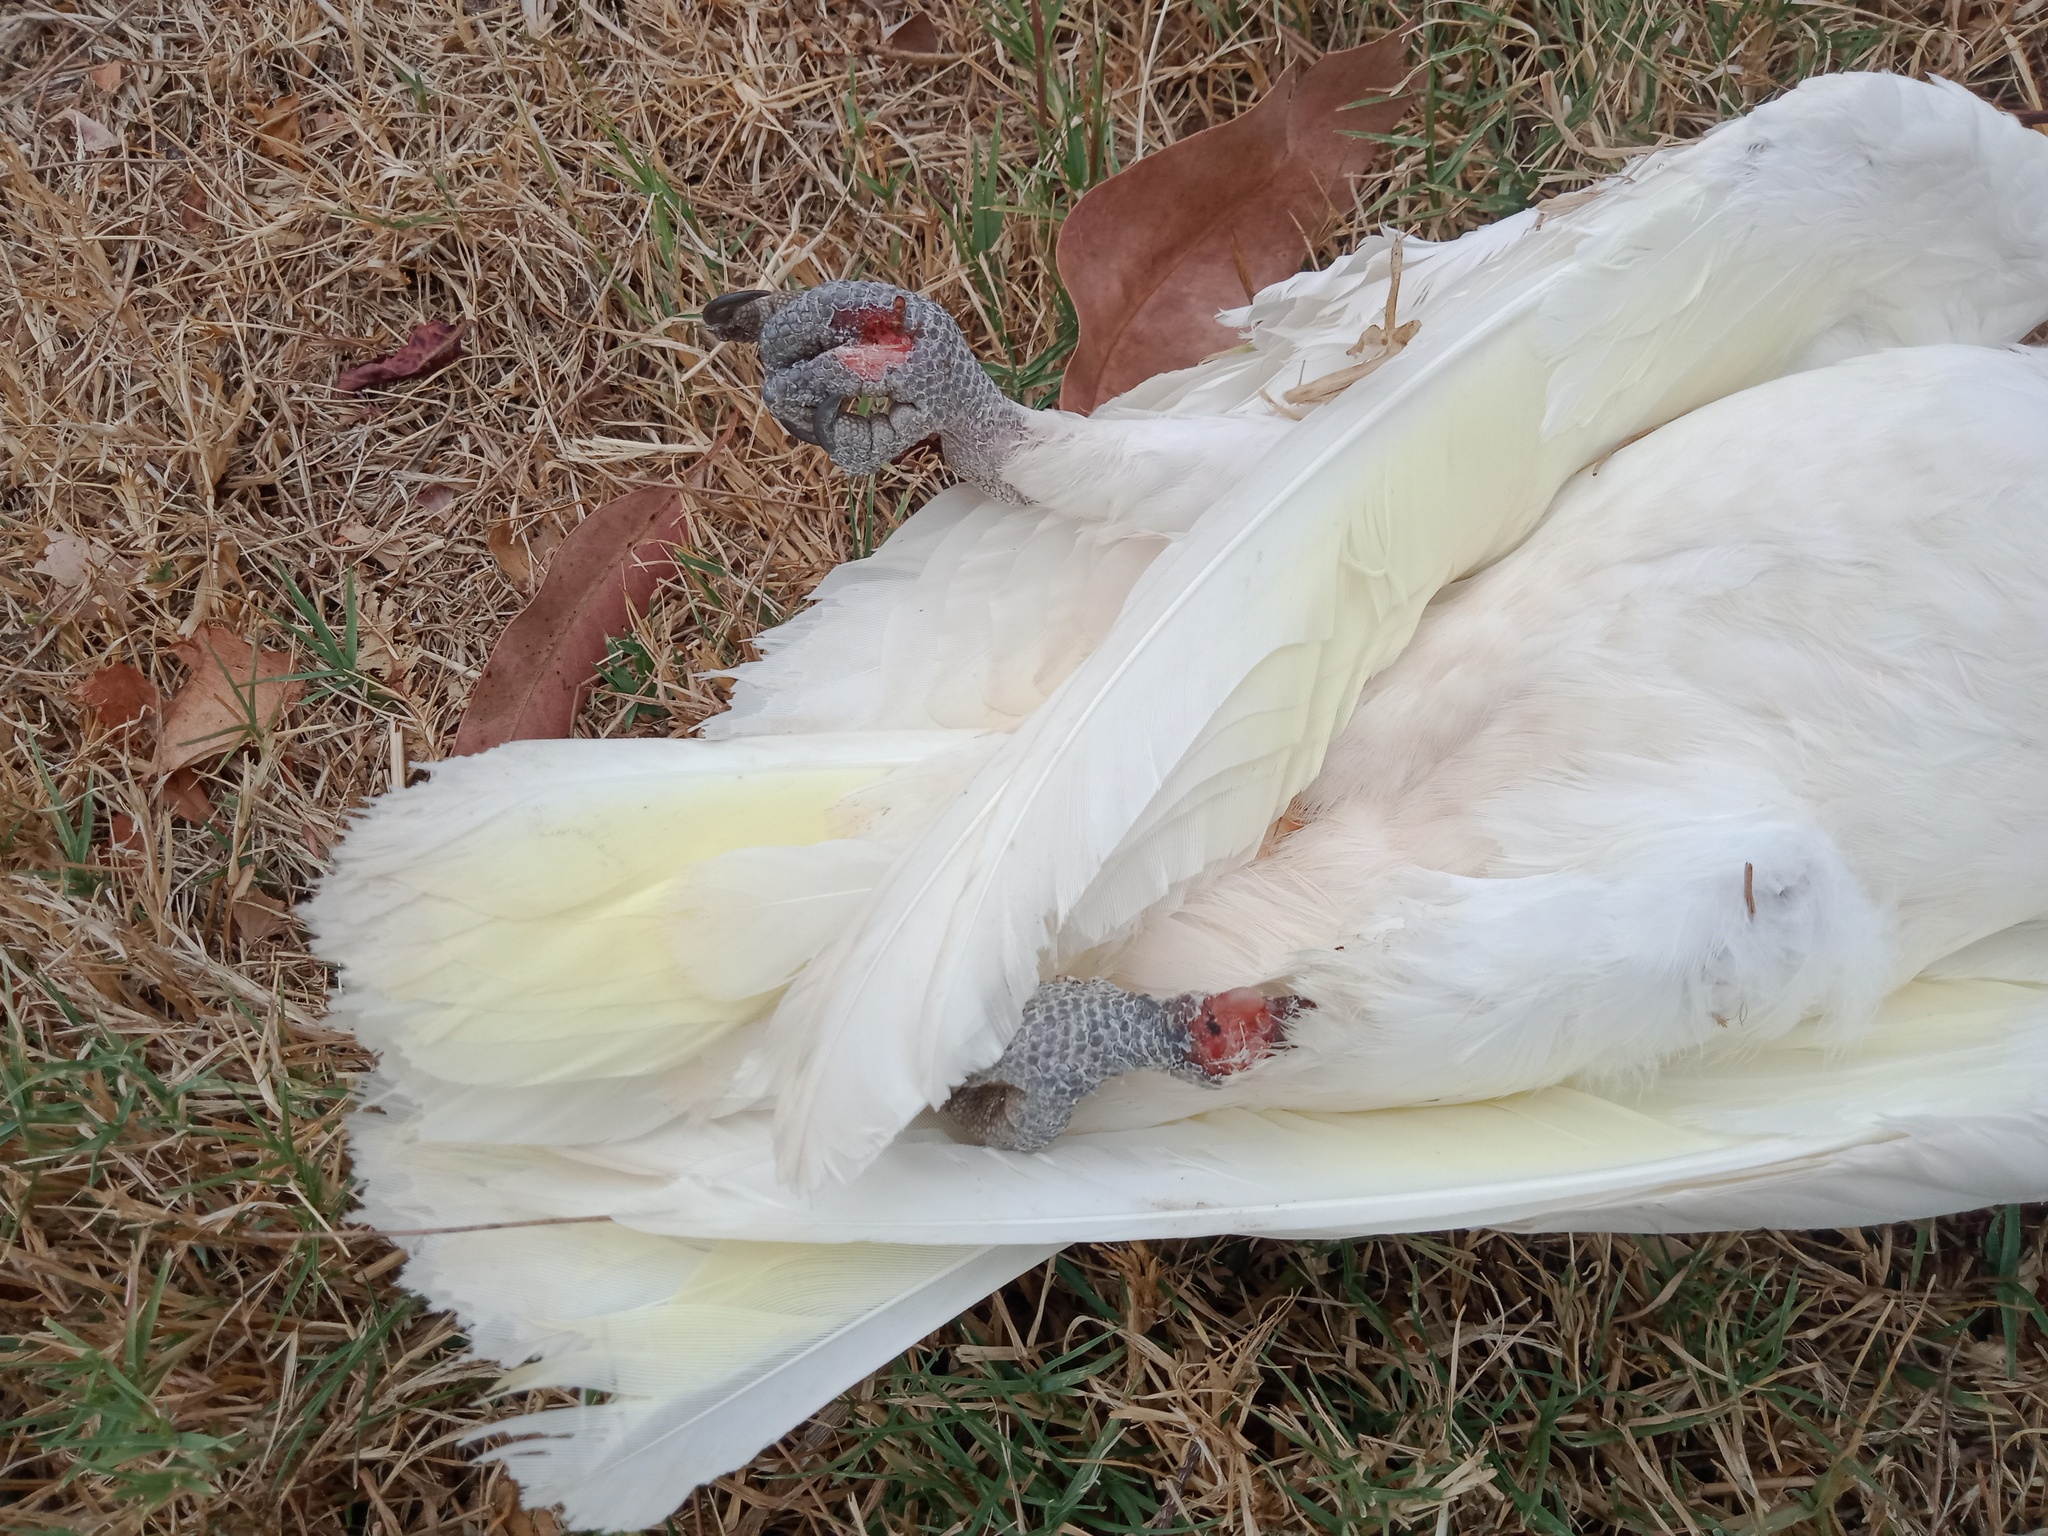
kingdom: Animalia
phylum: Chordata
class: Aves
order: Psittaciformes
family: Psittacidae
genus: Cacatua
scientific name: Cacatua sanguinea
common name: Little corella
